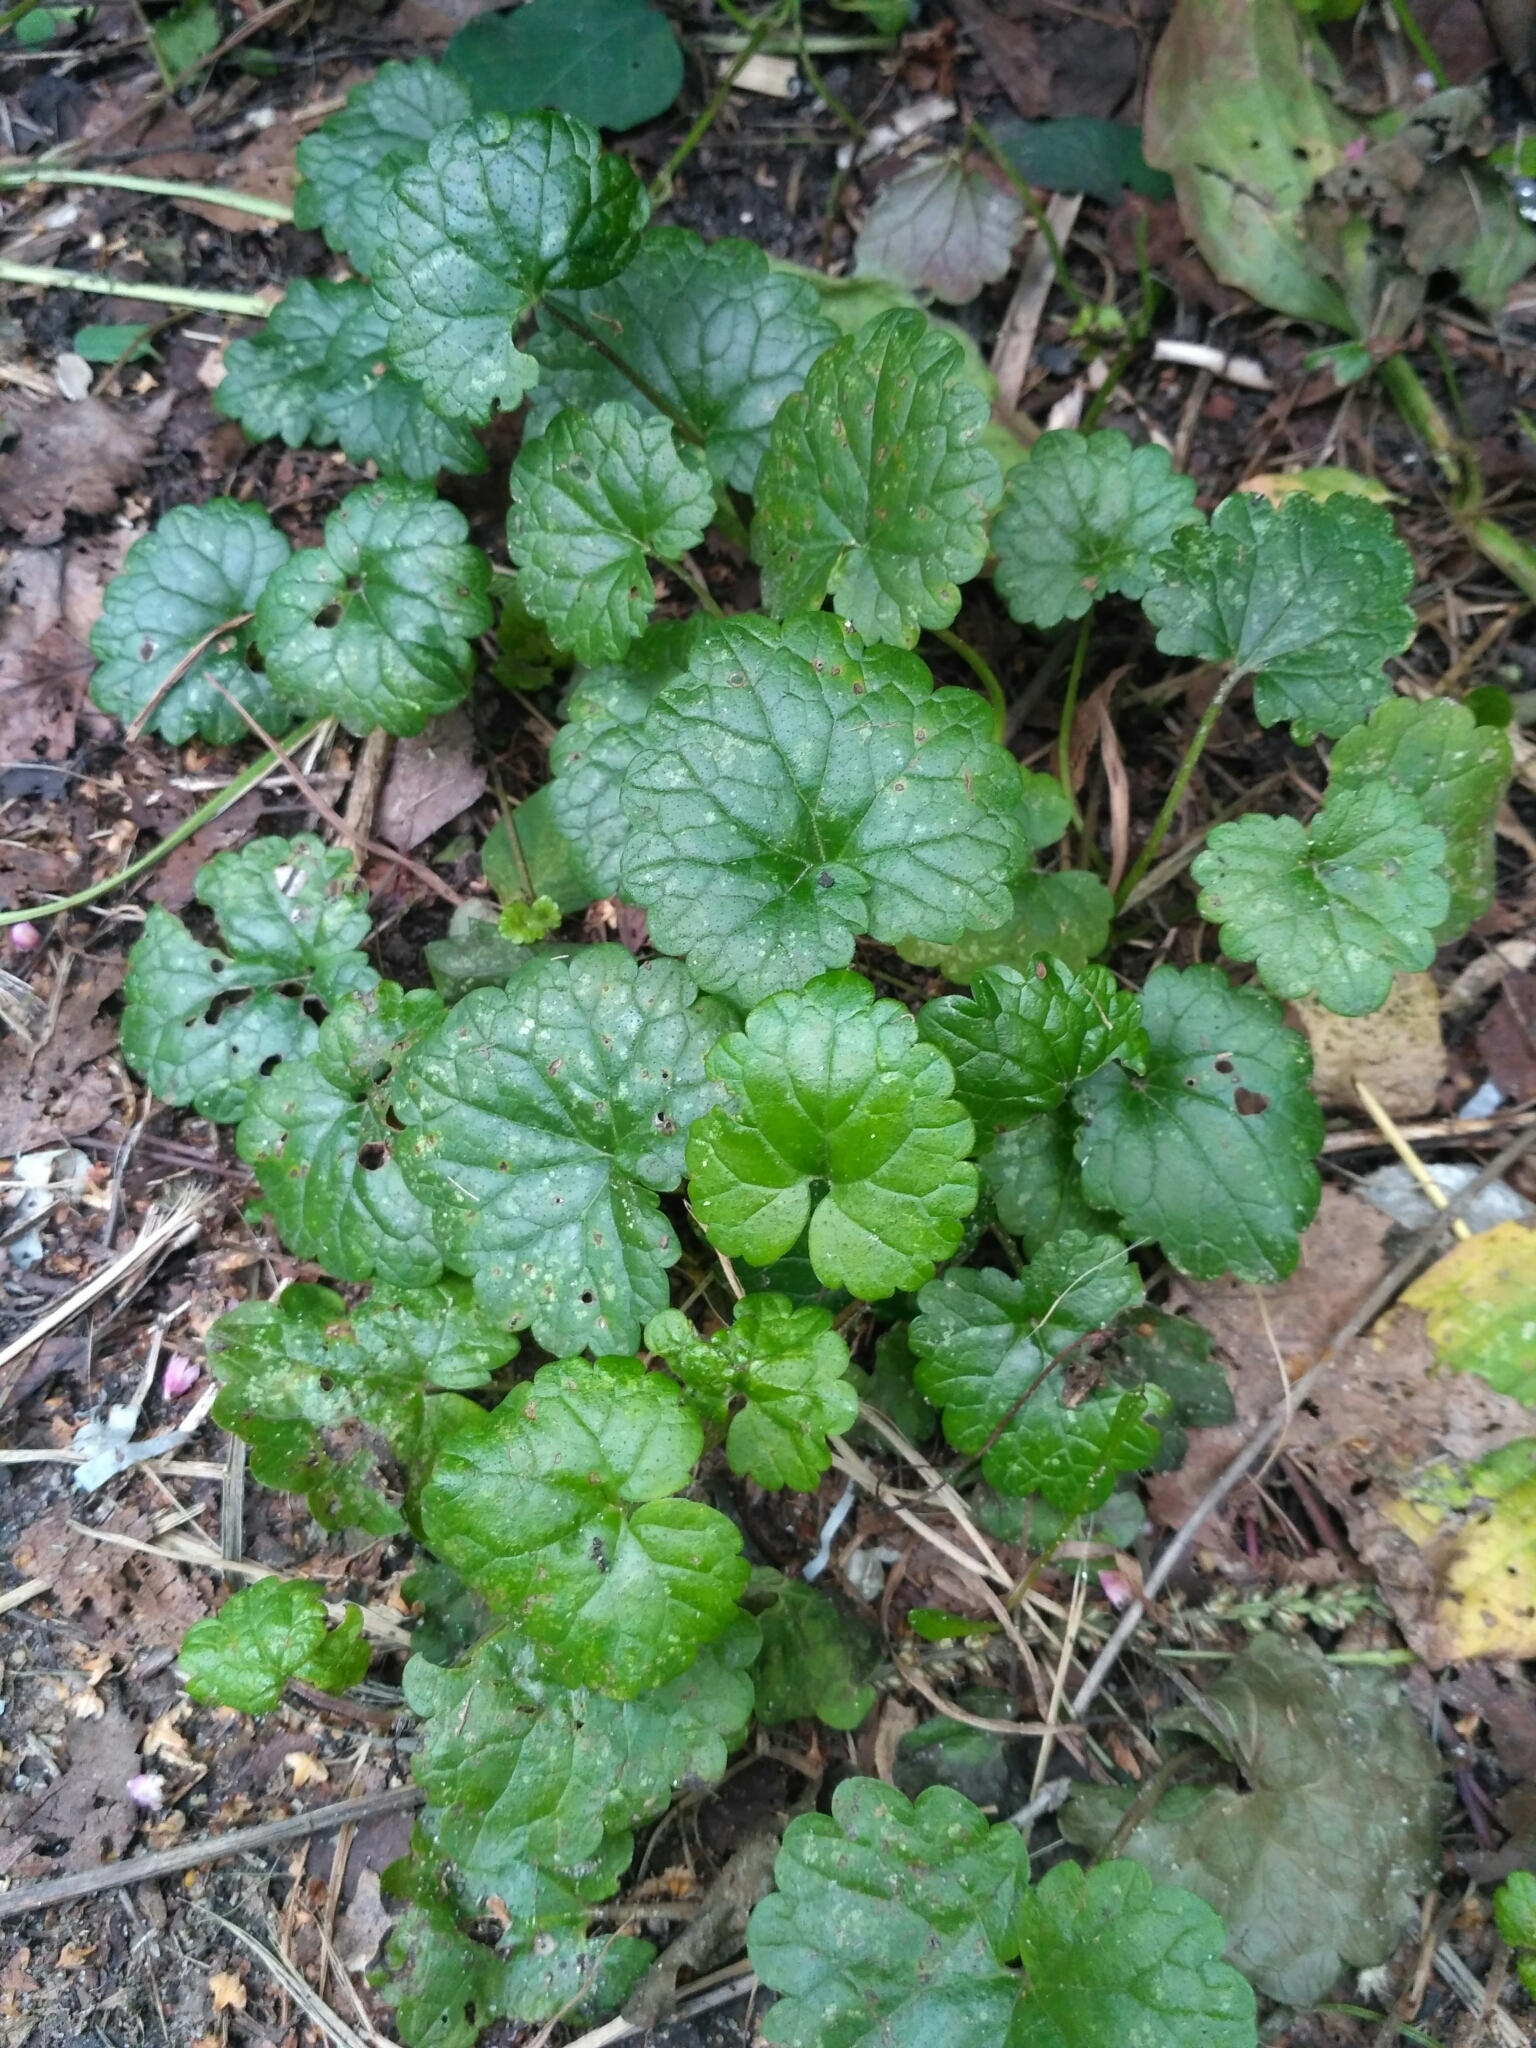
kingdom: Plantae
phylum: Tracheophyta
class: Magnoliopsida
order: Lamiales
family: Lamiaceae
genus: Glechoma
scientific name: Glechoma hederacea
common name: Ground ivy
